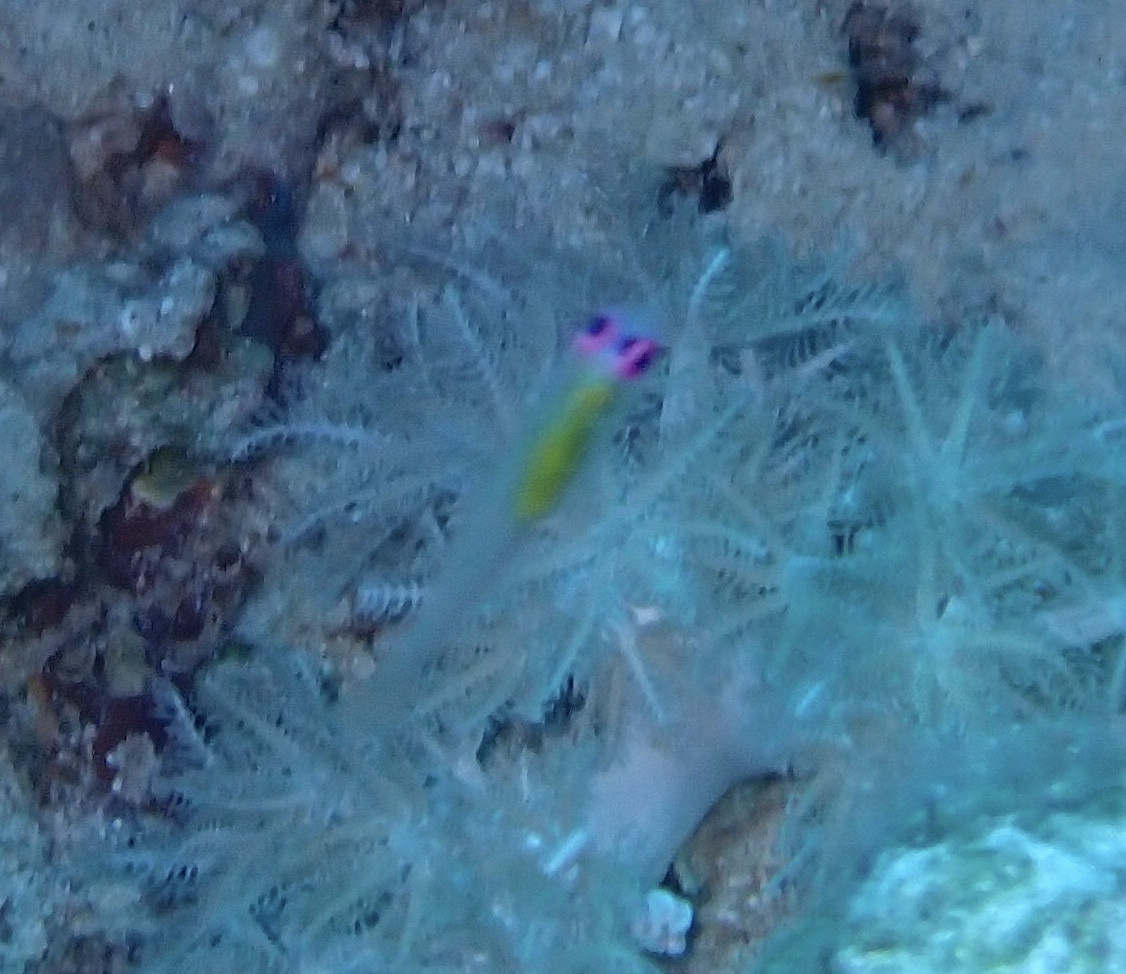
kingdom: Animalia
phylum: Chordata
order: Perciformes
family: Gobiidae
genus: Bryaninops
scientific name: Bryaninops natans
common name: Redeye goby
